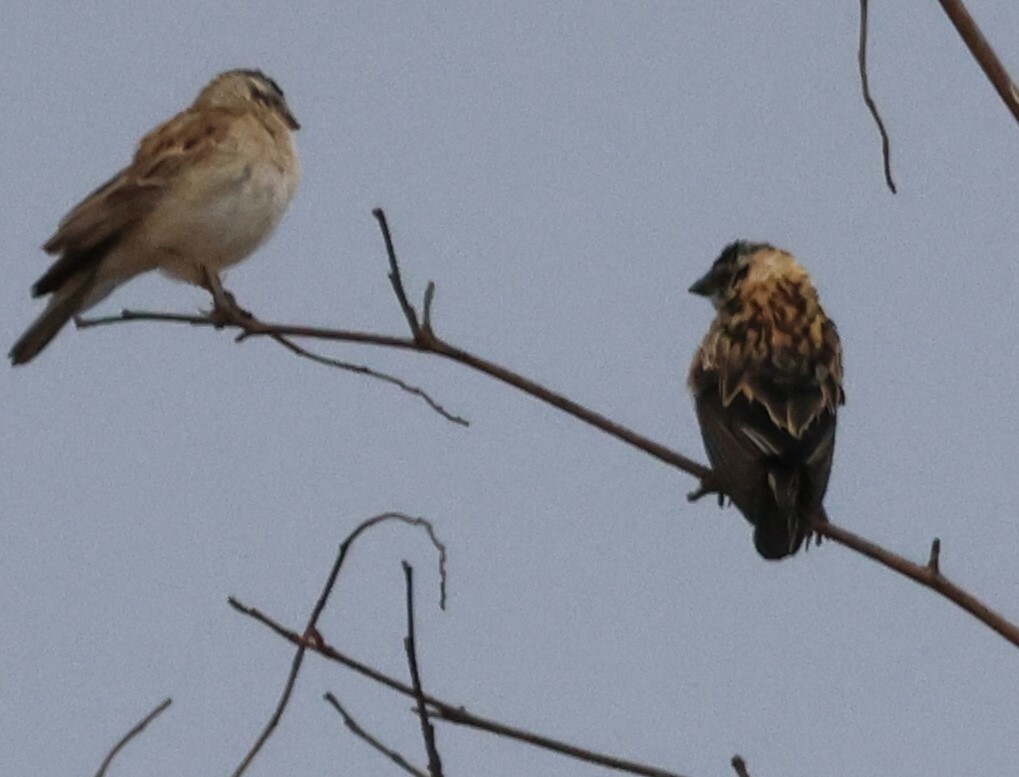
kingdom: Animalia
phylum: Chordata
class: Aves
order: Passeriformes
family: Viduidae
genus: Vidua
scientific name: Vidua paradisaea
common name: Long-tailed paradise whydah
